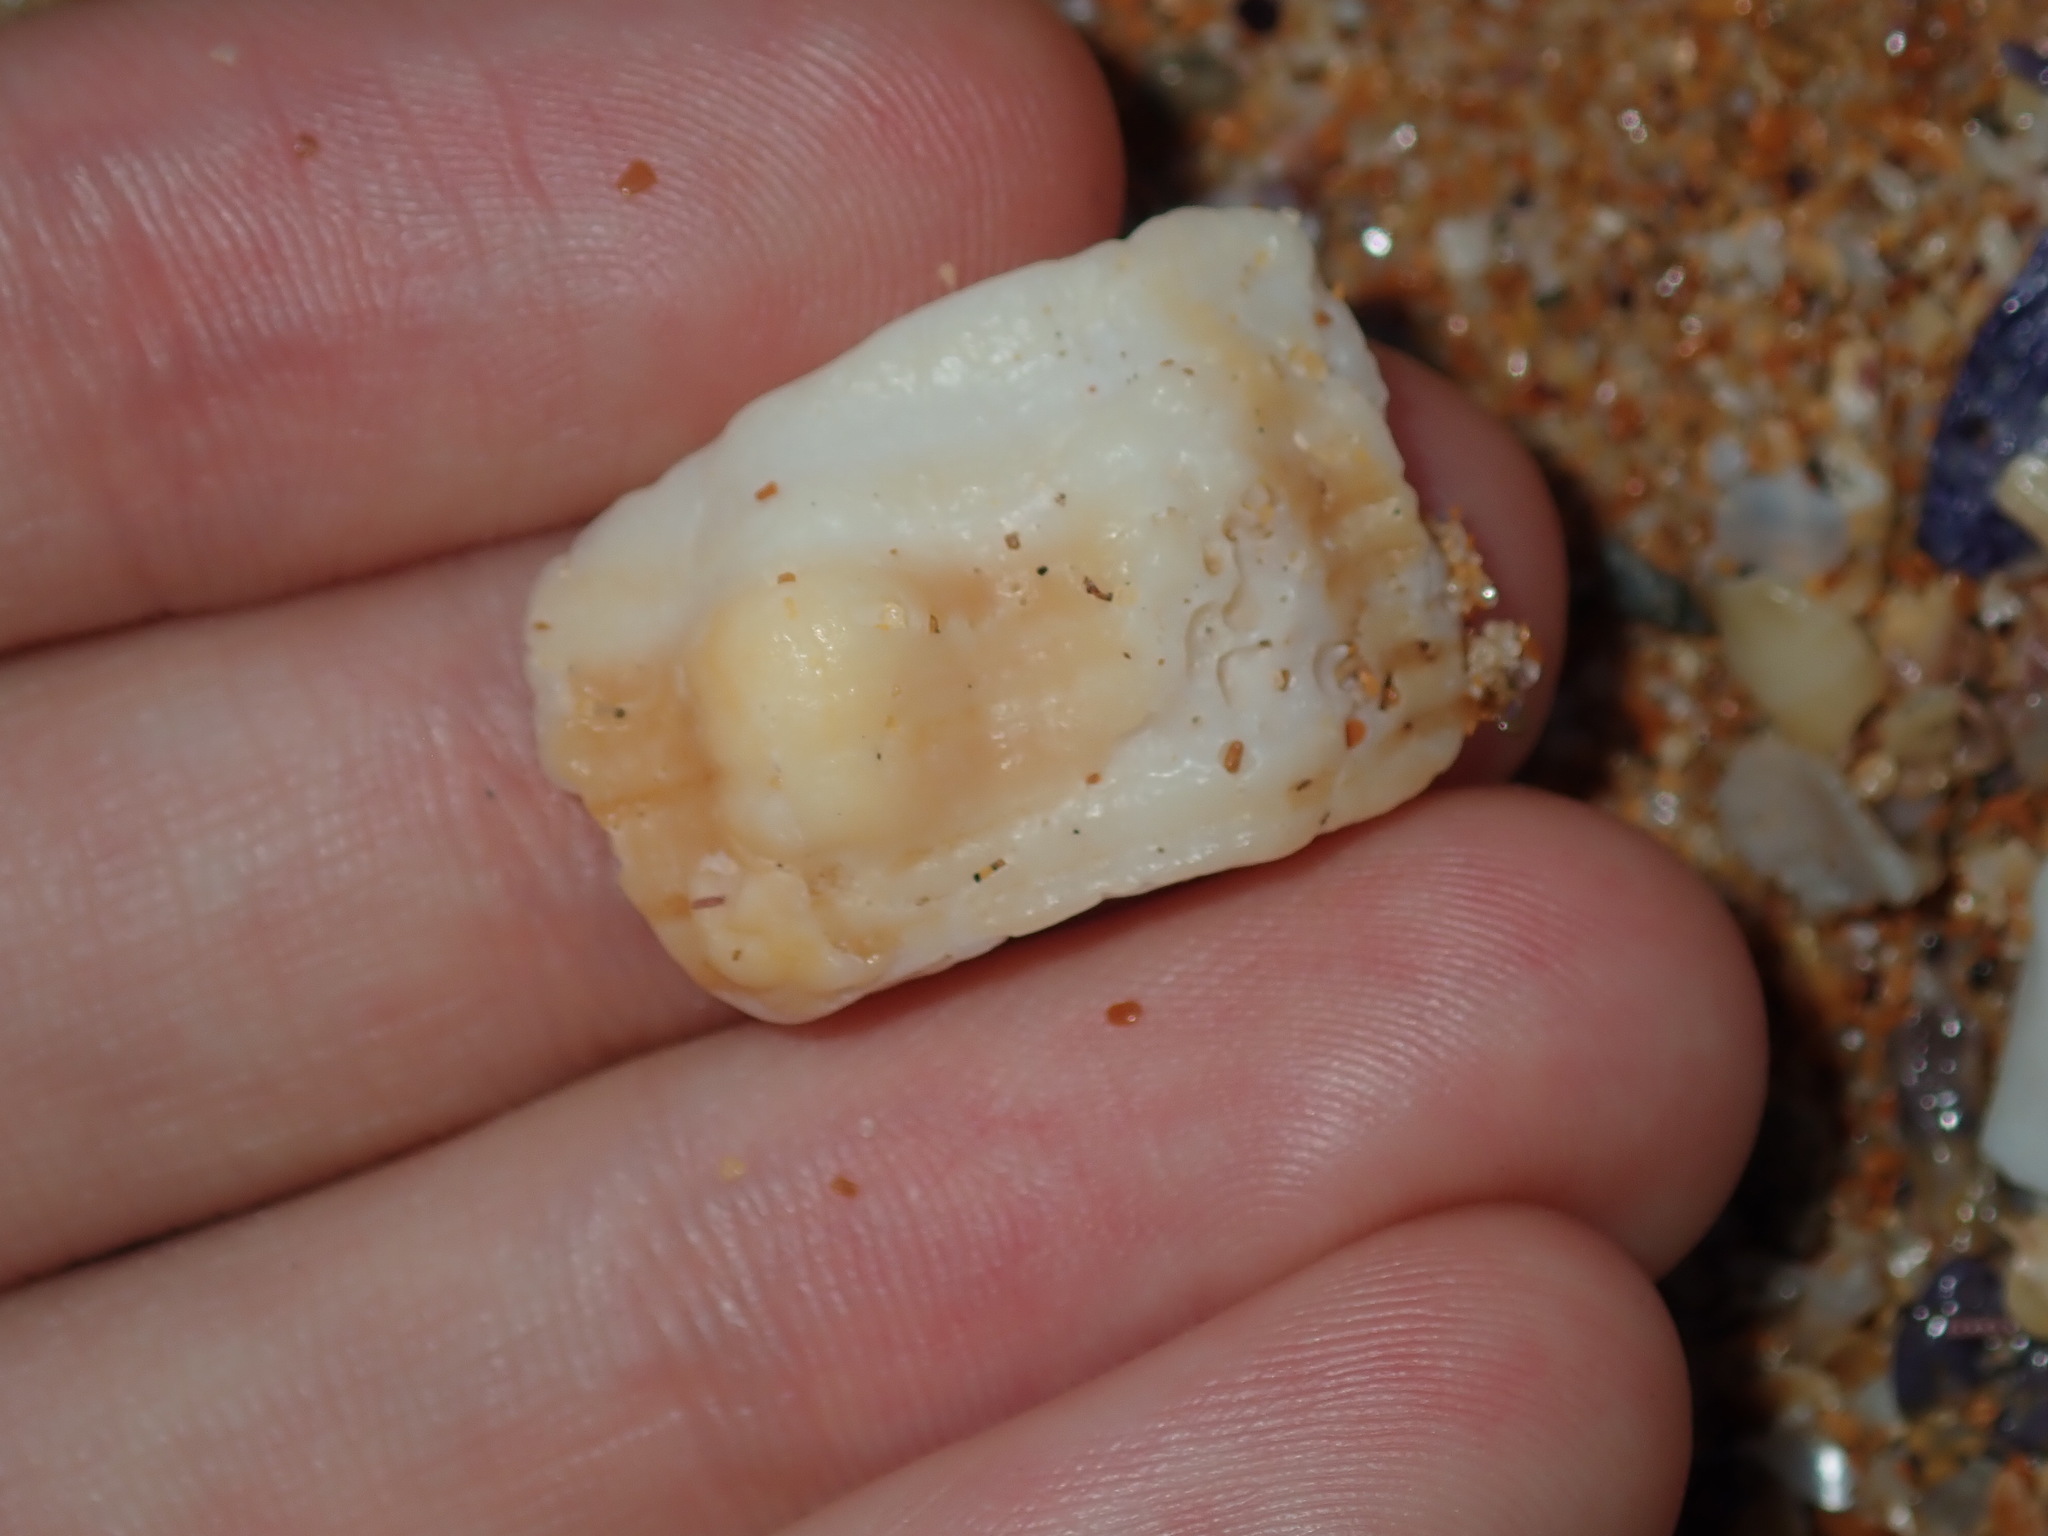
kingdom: Animalia
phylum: Mollusca
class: Gastropoda
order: Littorinimorpha
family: Cymatiidae
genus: Cabestana
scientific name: Cabestana spengleri
